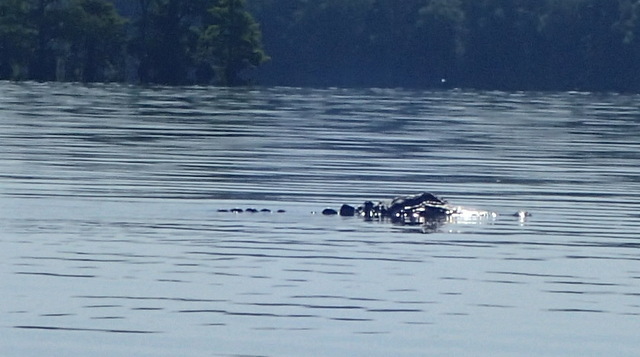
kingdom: Animalia
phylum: Chordata
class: Crocodylia
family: Alligatoridae
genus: Alligator
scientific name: Alligator mississippiensis
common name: American alligator
